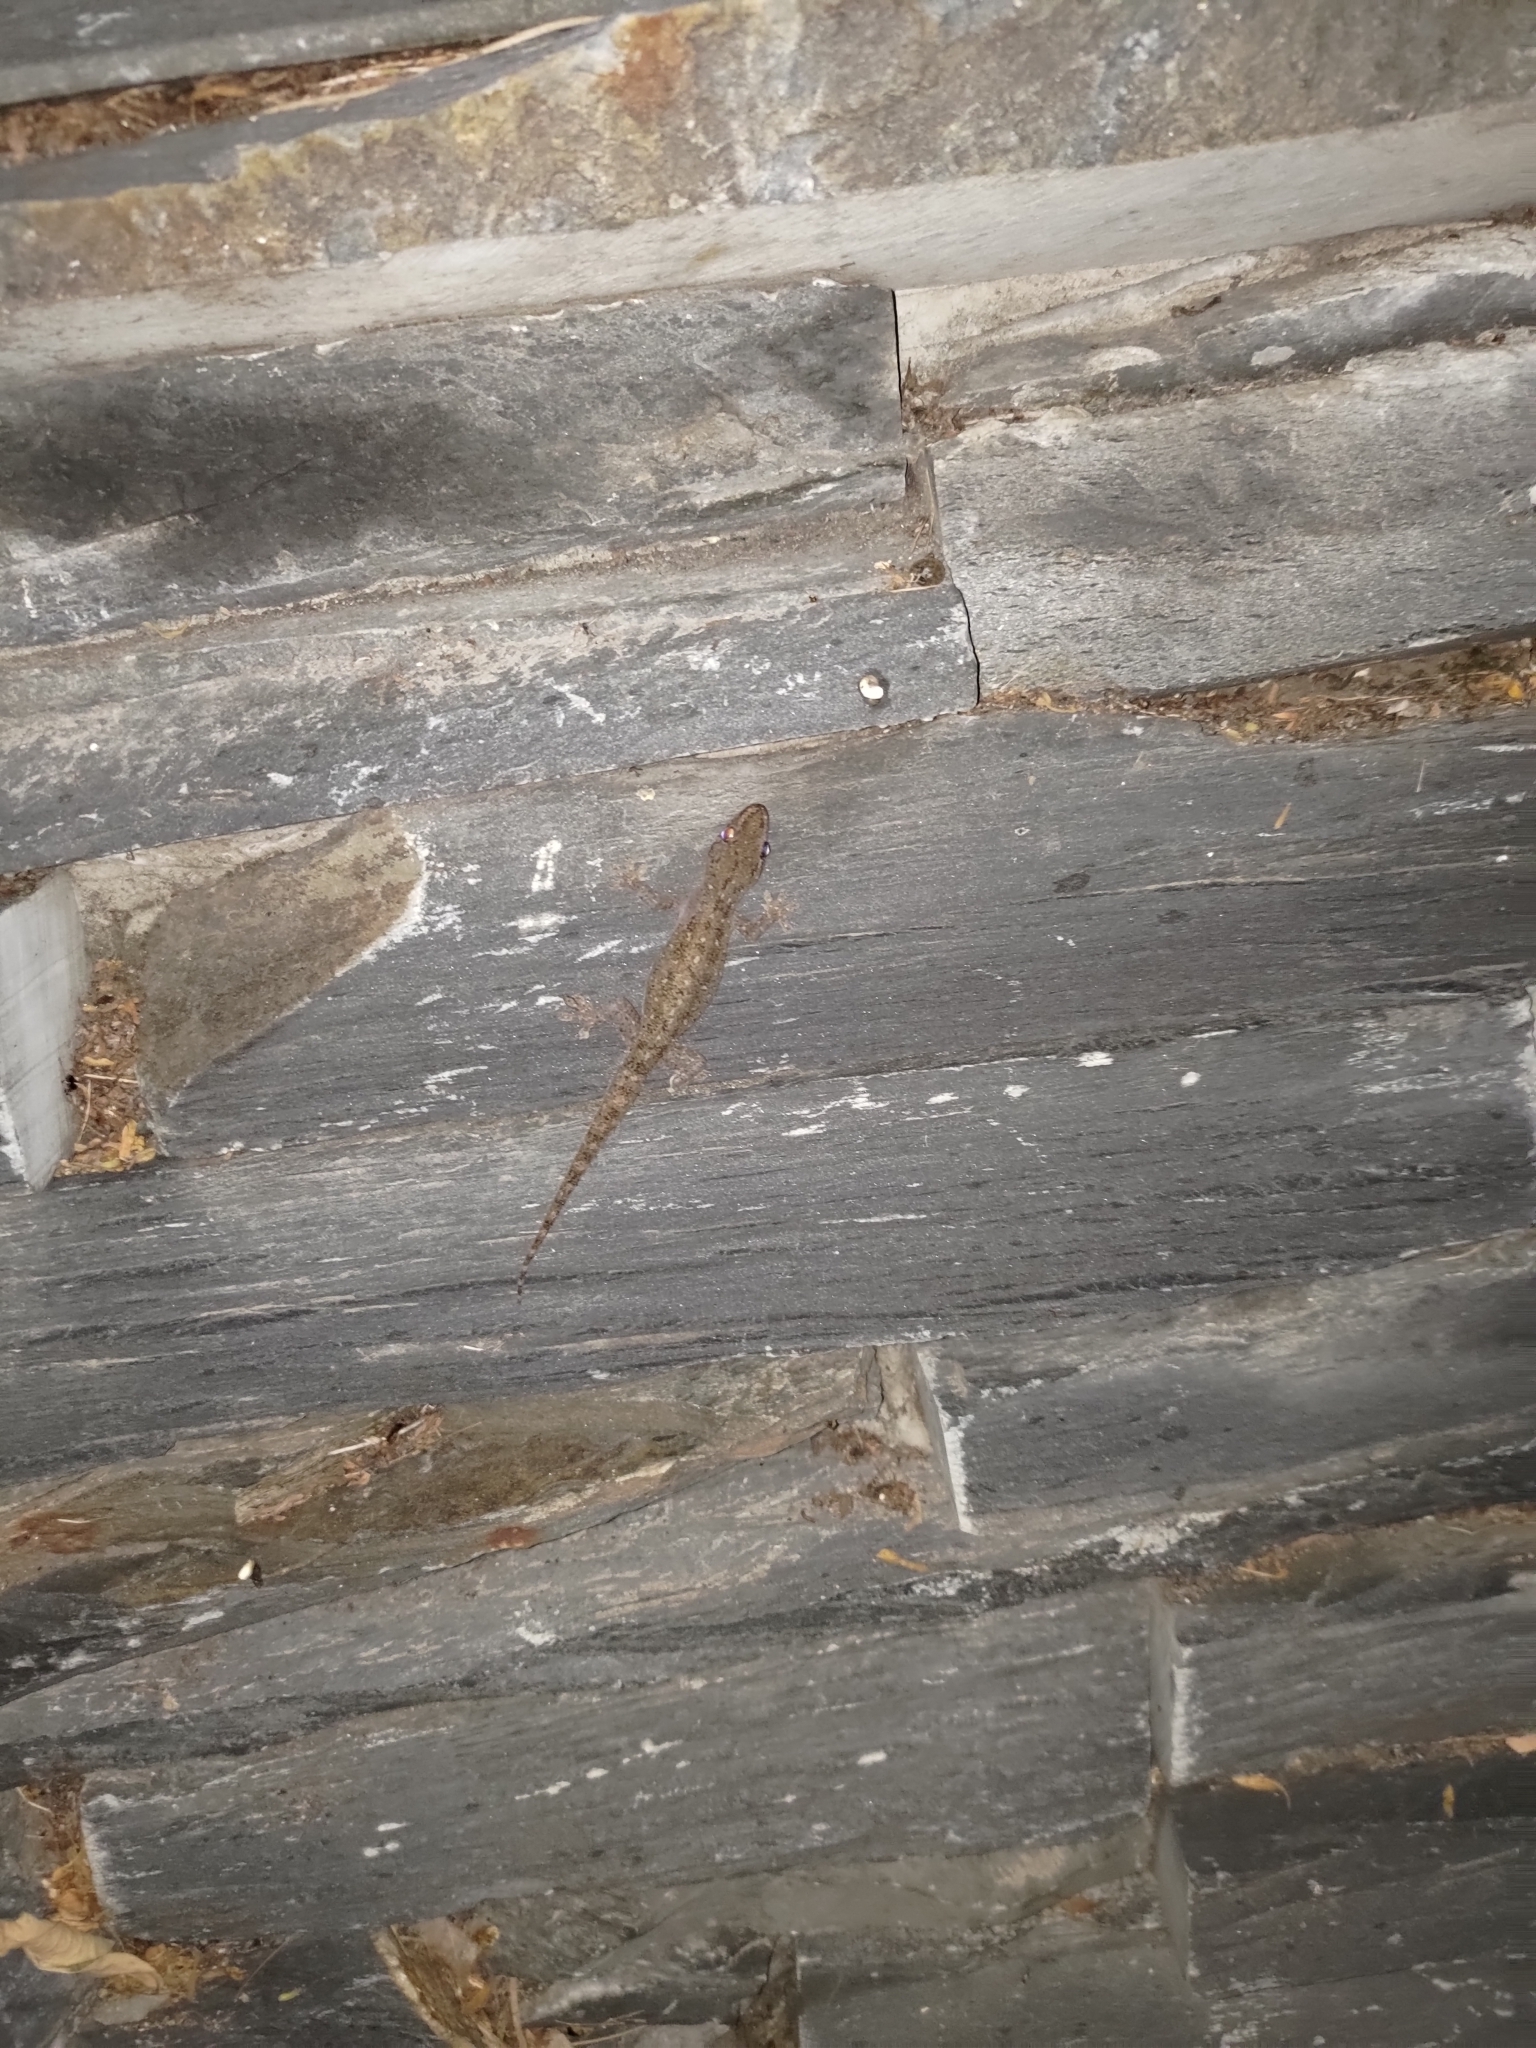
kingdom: Animalia
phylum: Chordata
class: Squamata
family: Gekkonidae
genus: Hemidactylus
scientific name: Hemidactylus frenatus
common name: Common house gecko
